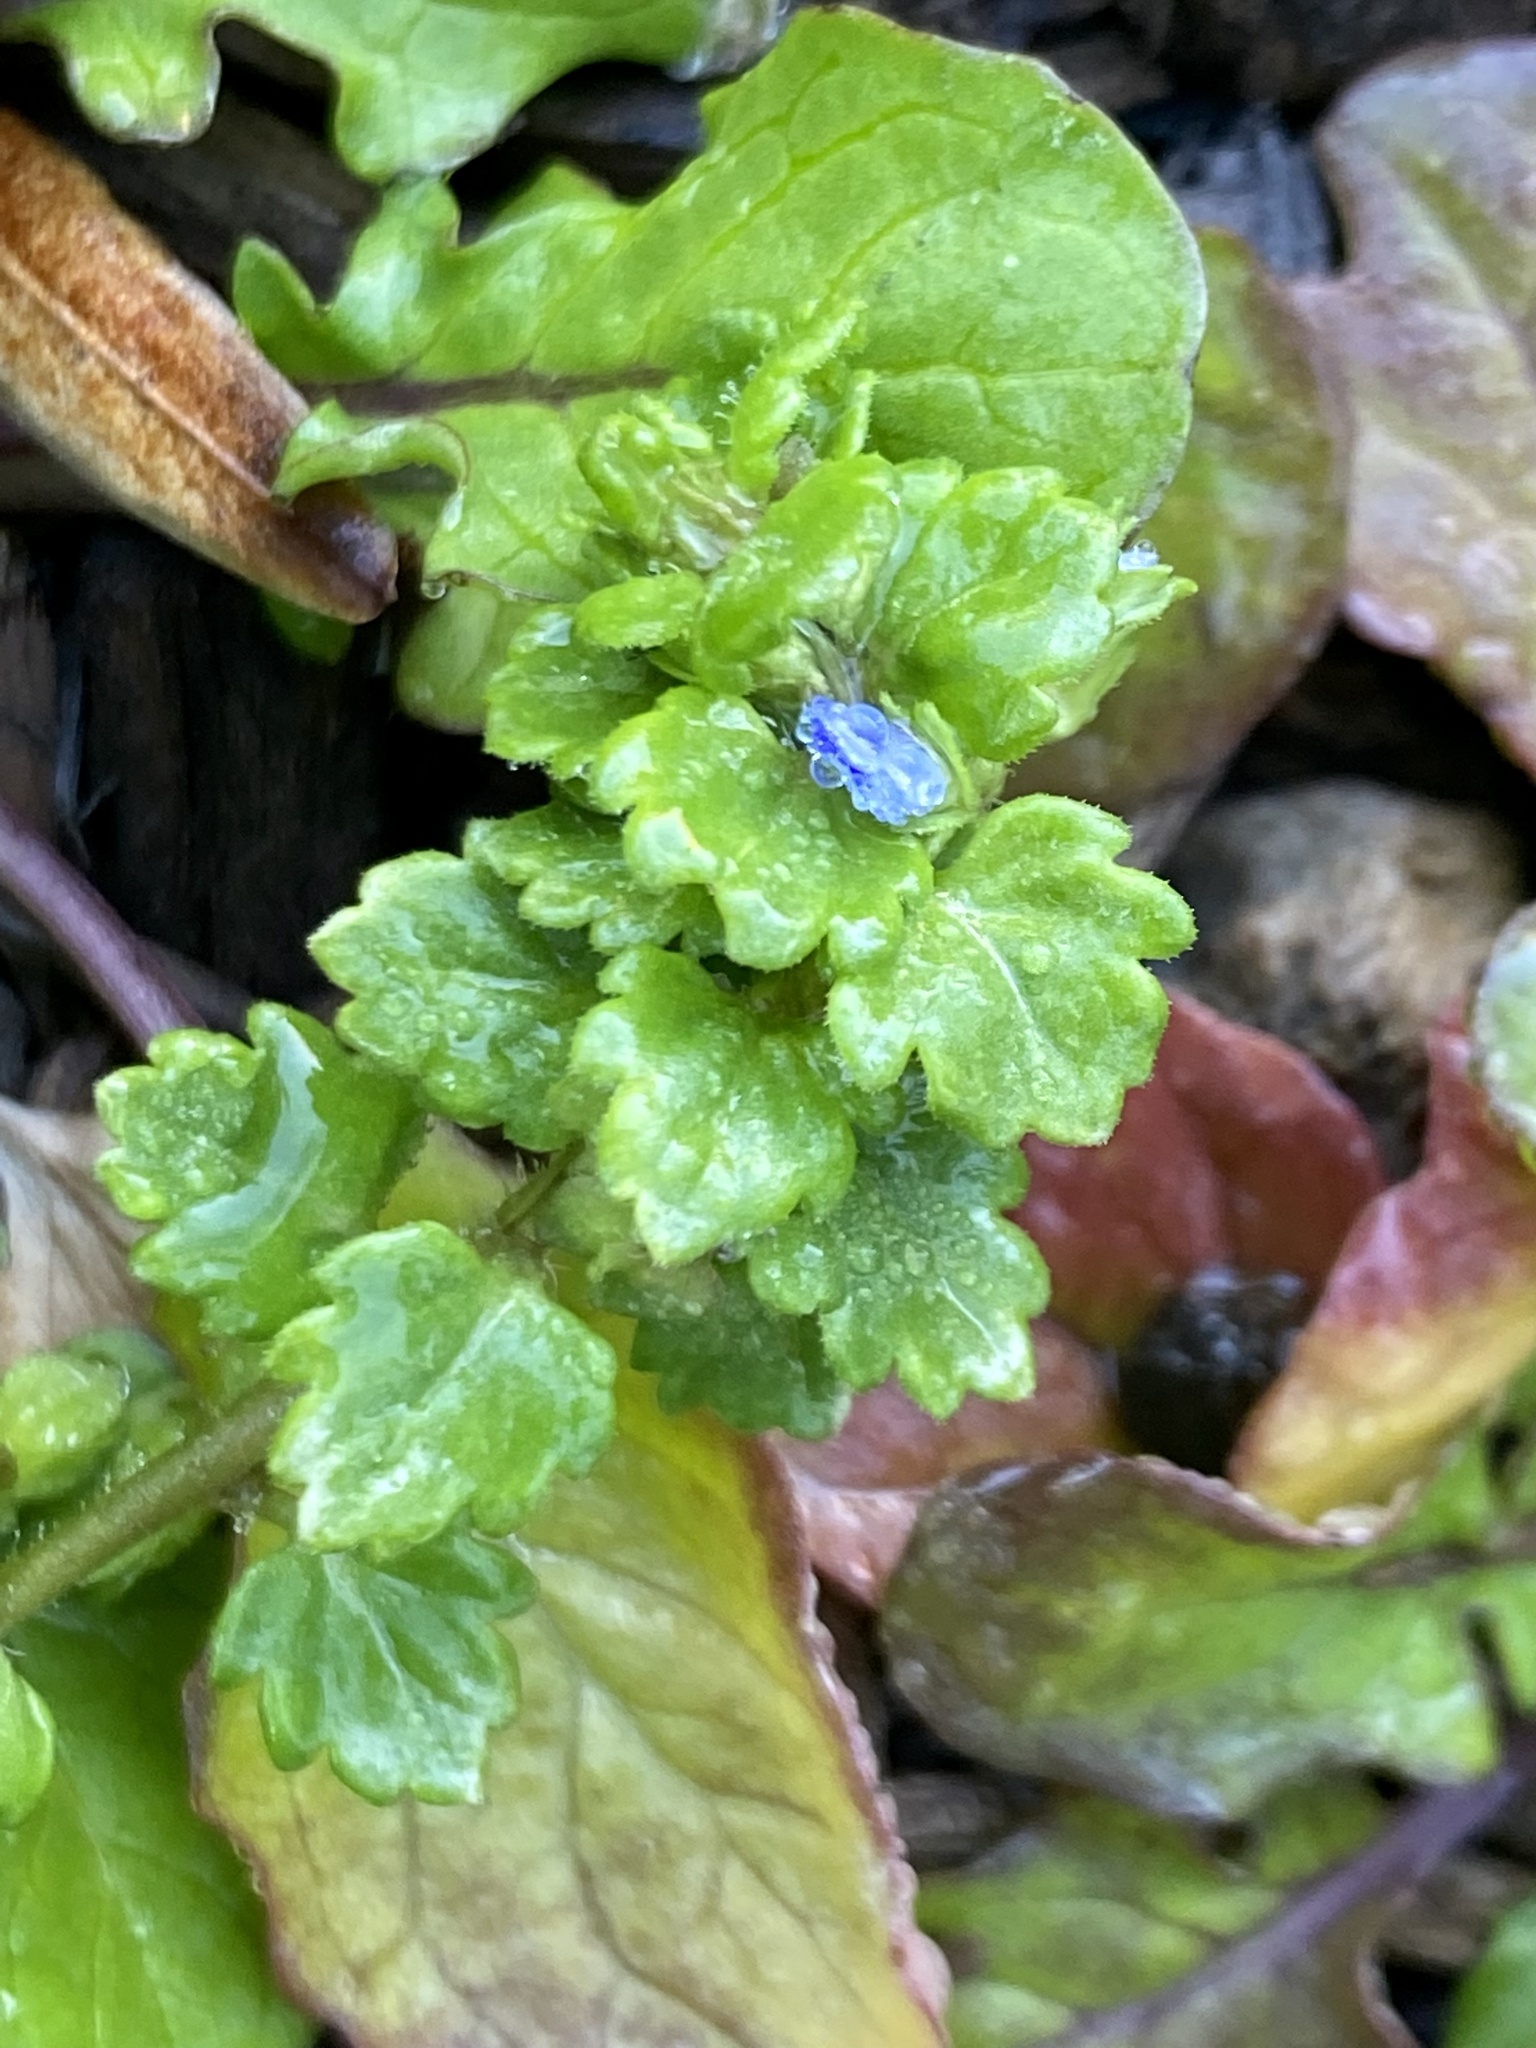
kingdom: Plantae
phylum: Tracheophyta
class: Magnoliopsida
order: Lamiales
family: Plantaginaceae
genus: Veronica
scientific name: Veronica polita
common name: Grey field-speedwell
